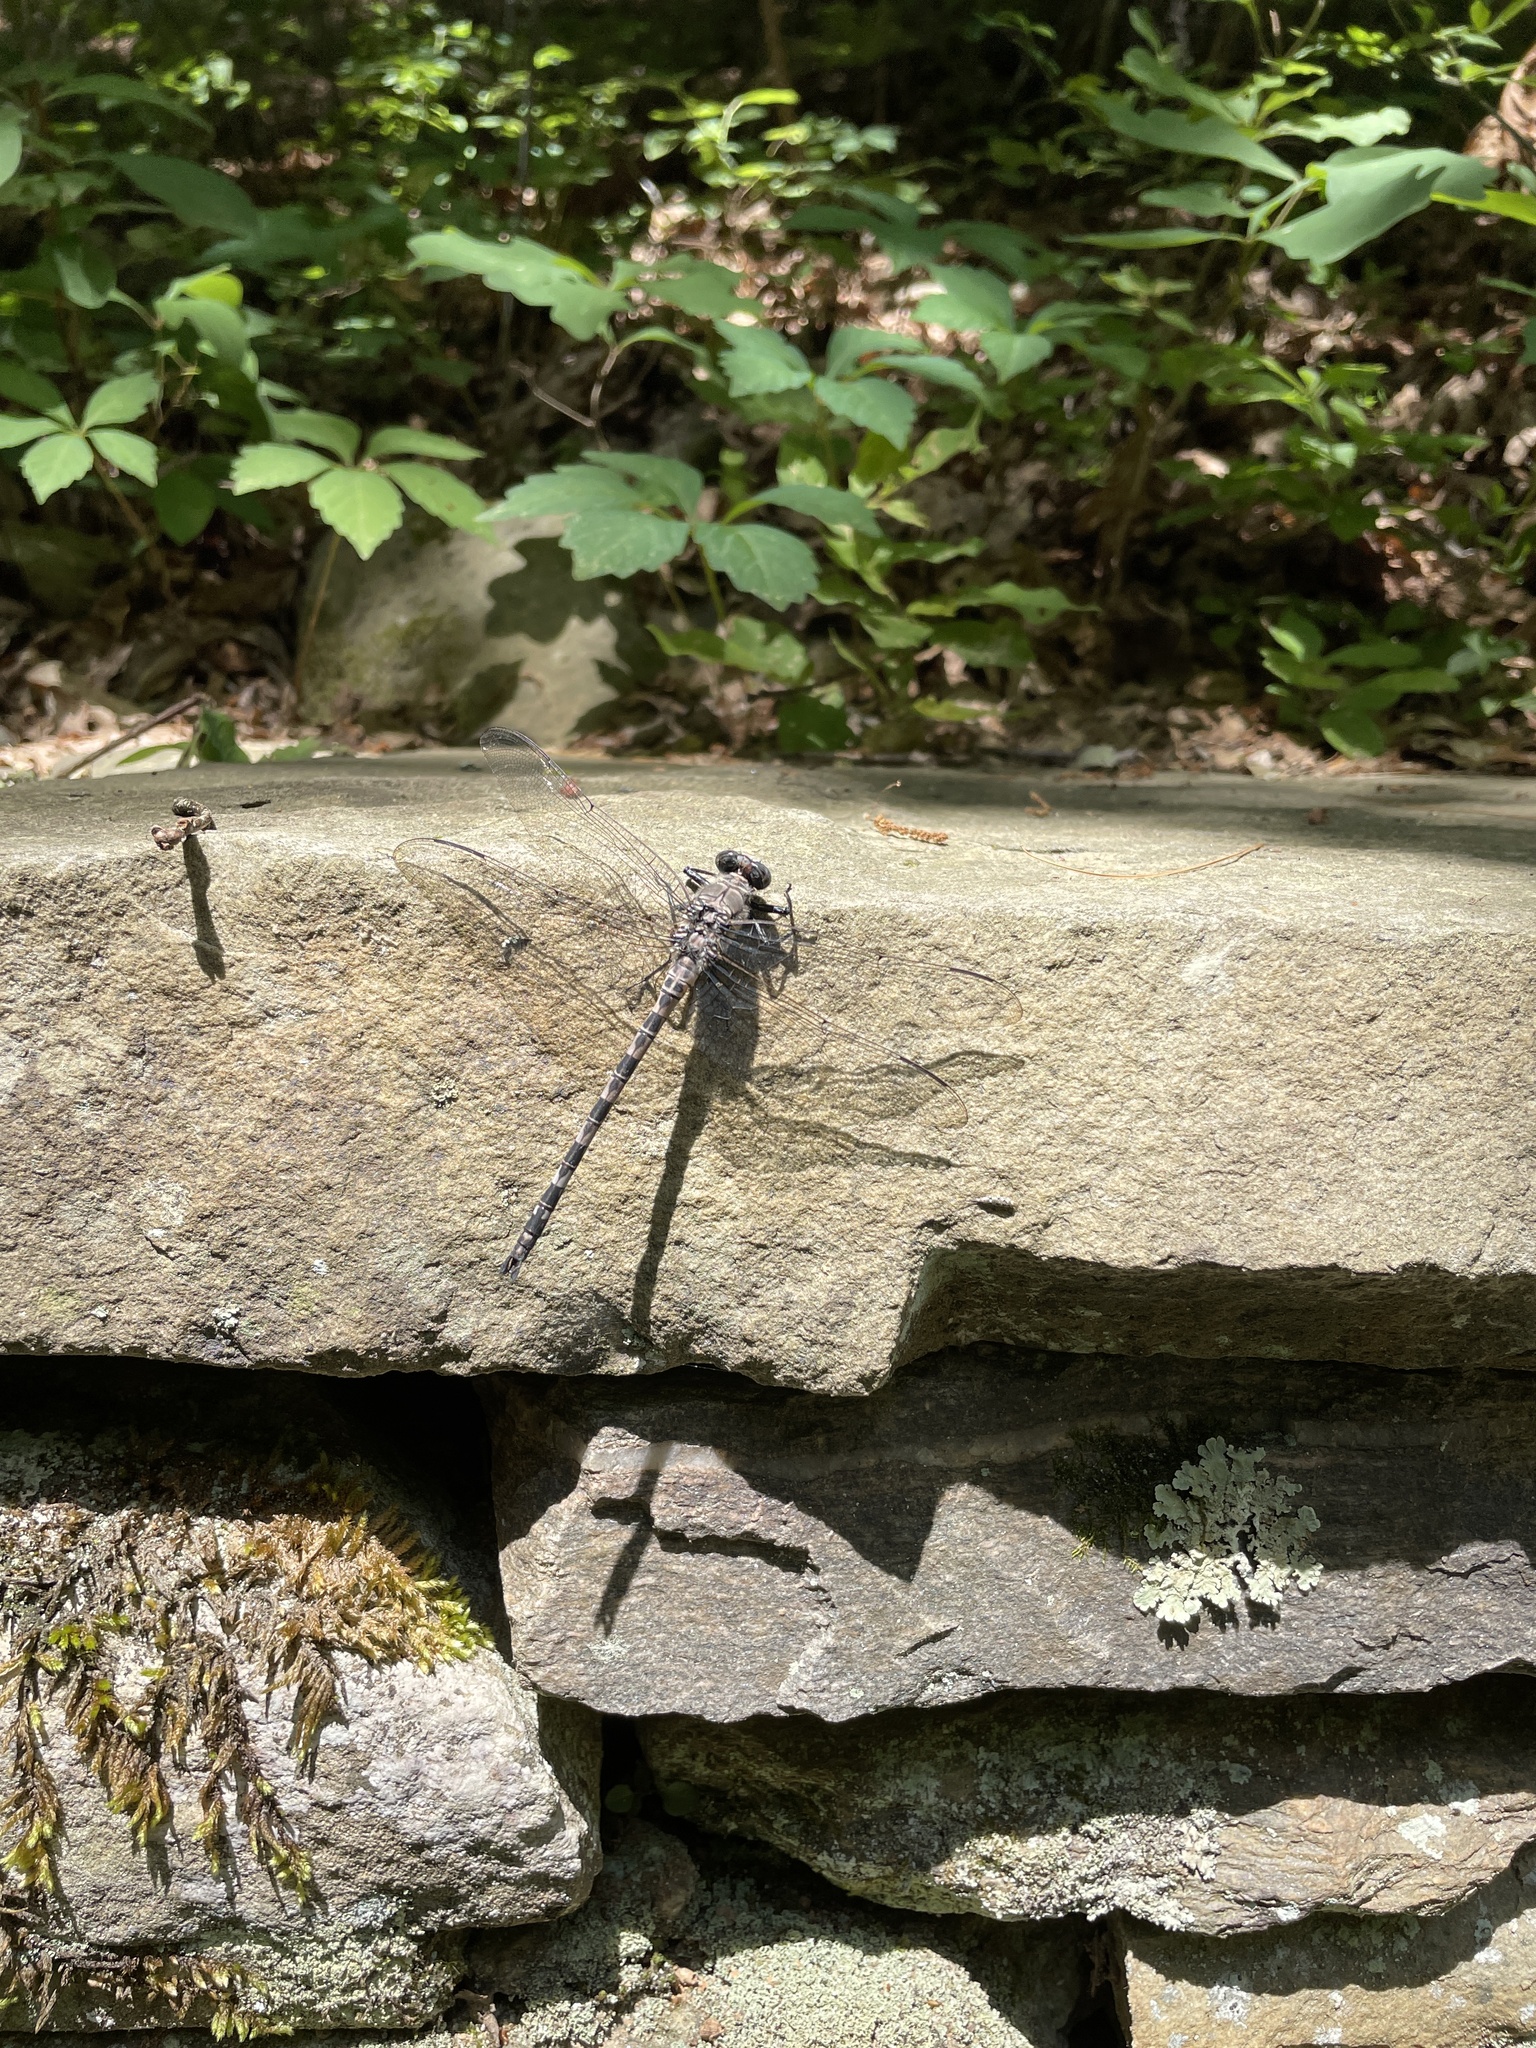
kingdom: Animalia
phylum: Arthropoda
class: Insecta
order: Odonata
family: Petaluridae
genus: Tachopteryx
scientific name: Tachopteryx thoreyi
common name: Gray petaltail
